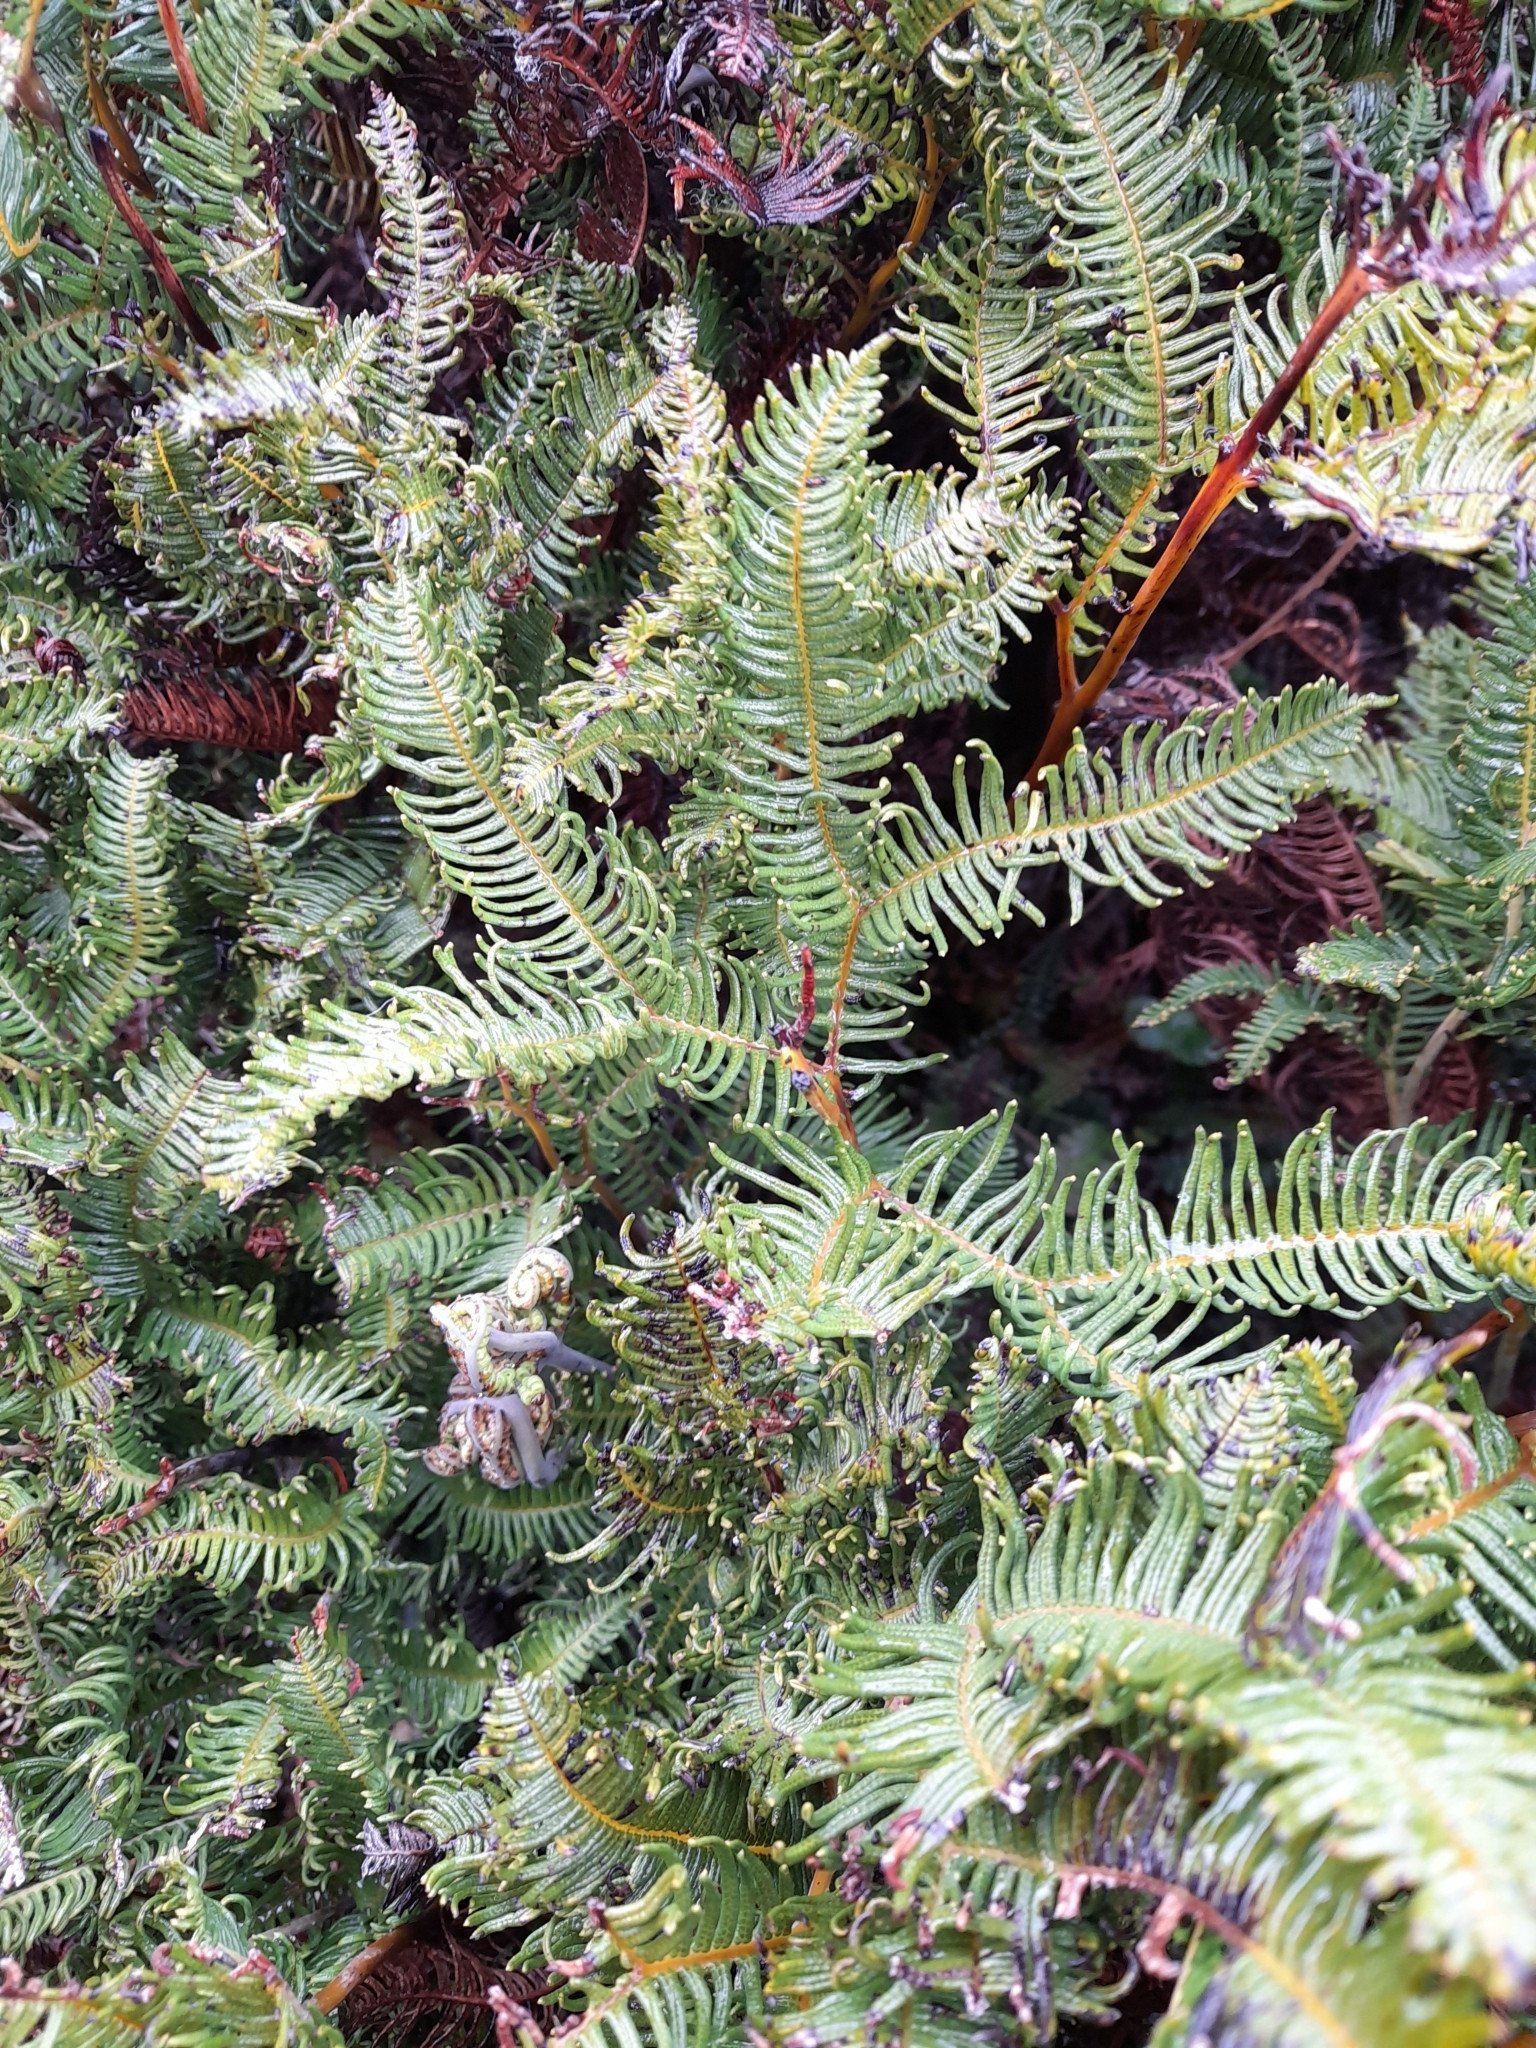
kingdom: Plantae
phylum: Tracheophyta
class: Polypodiopsida
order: Gleicheniales
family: Gleicheniaceae
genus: Sticherus
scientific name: Sticherus cryptocarpus
